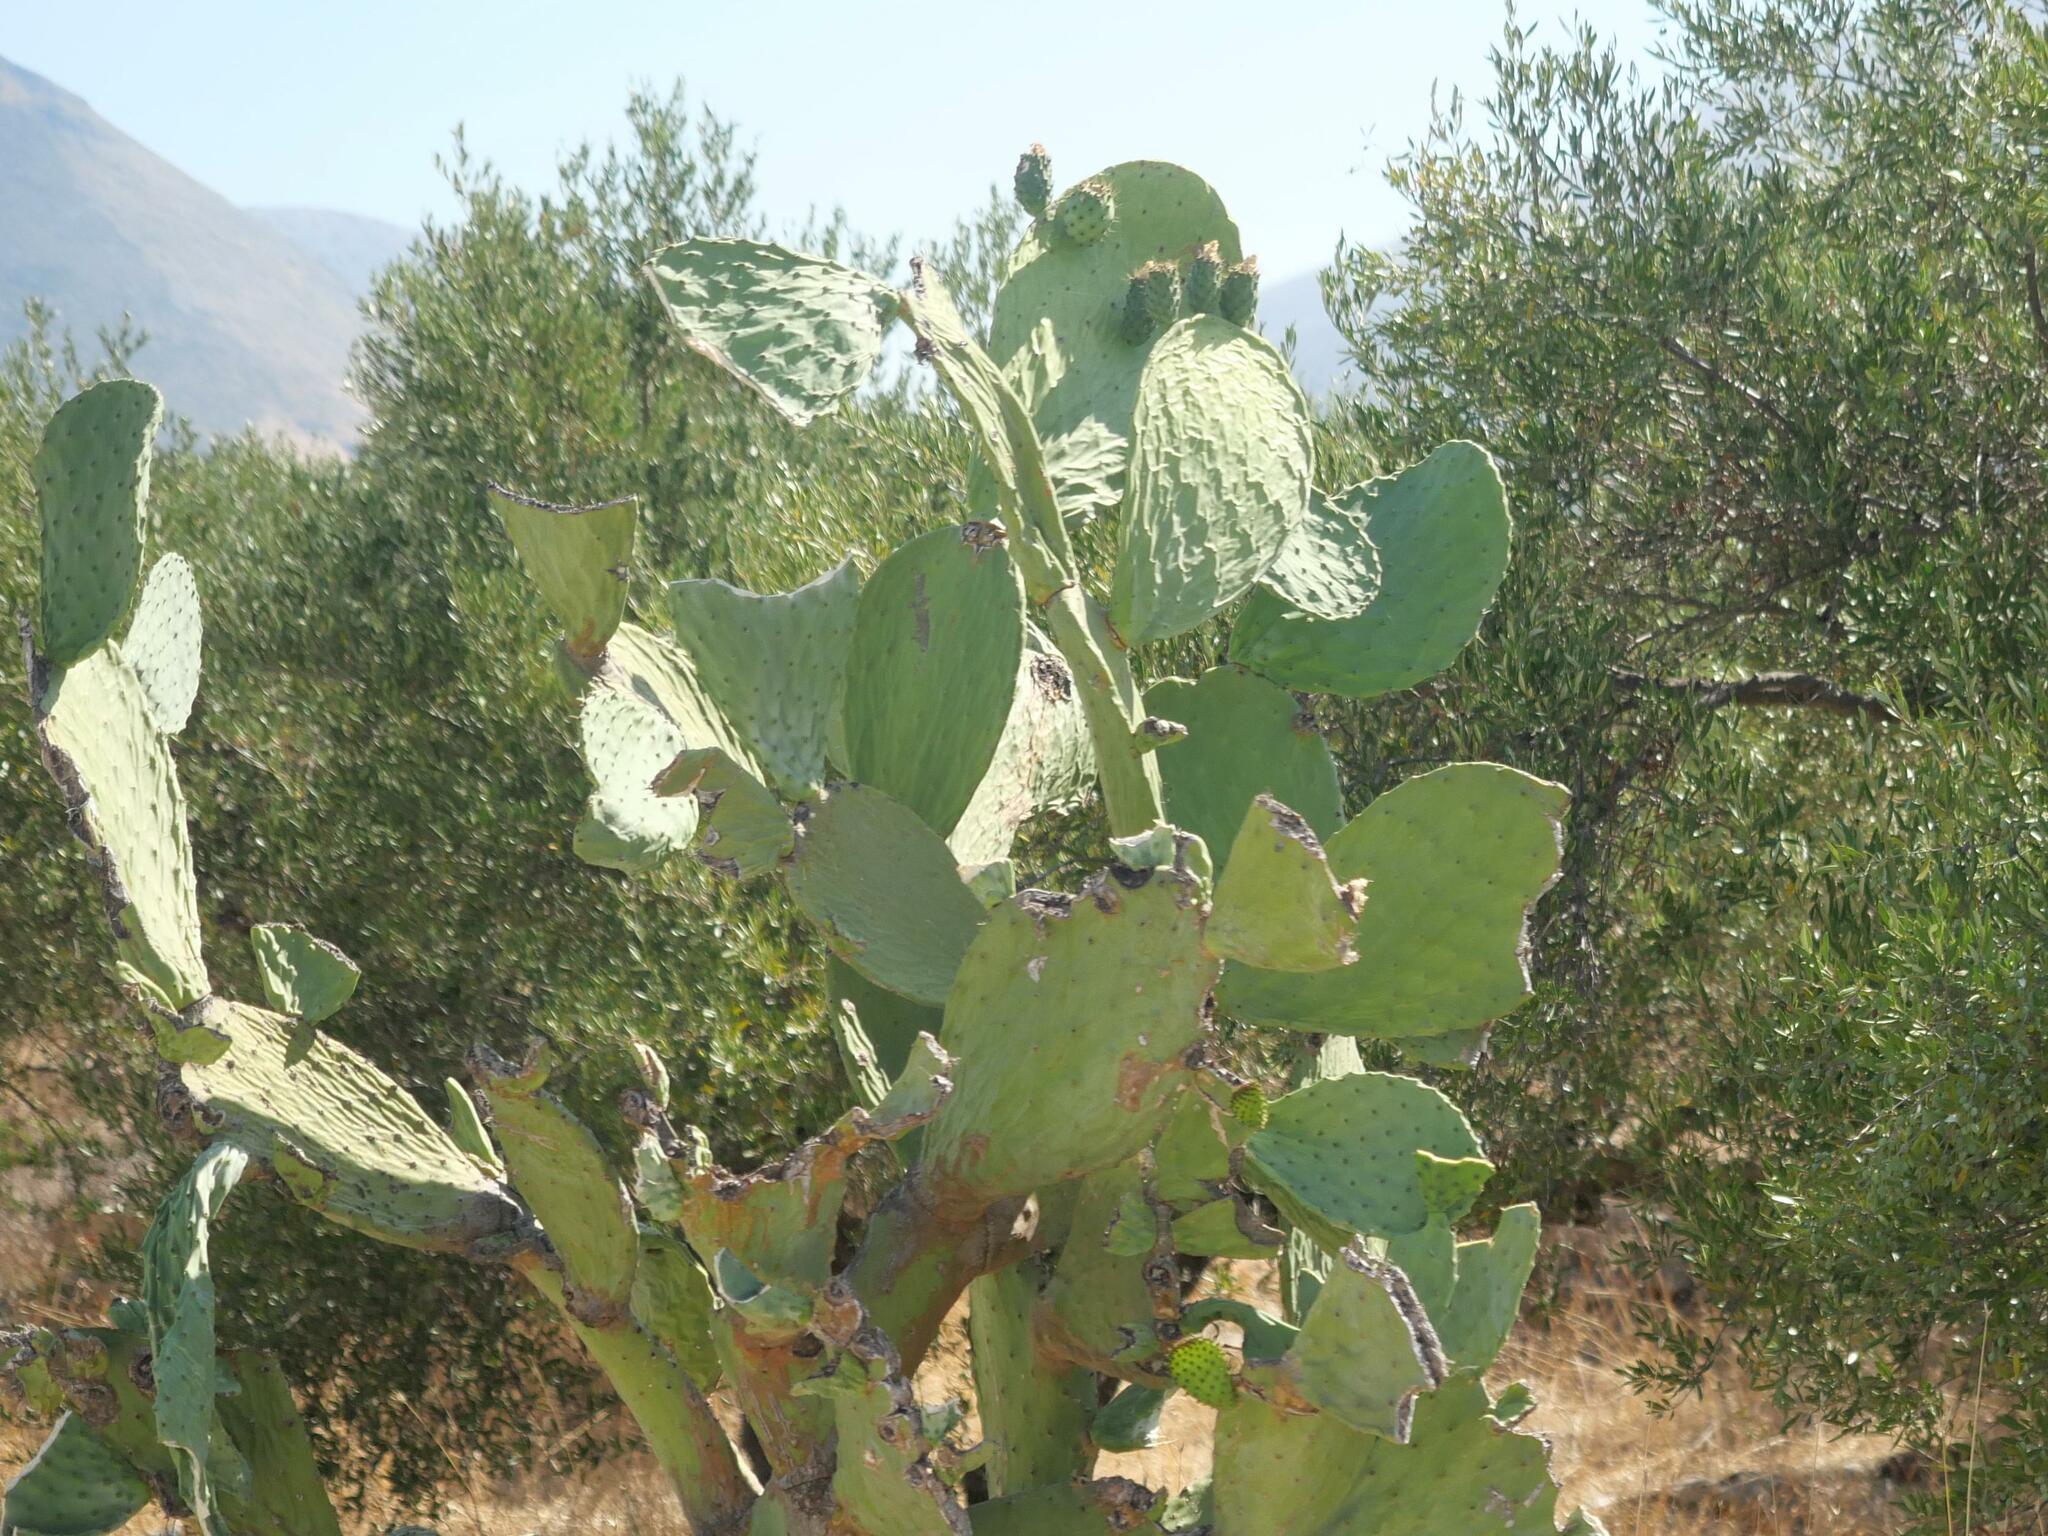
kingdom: Plantae
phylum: Tracheophyta
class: Magnoliopsida
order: Caryophyllales
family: Cactaceae
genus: Opuntia
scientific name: Opuntia ficus-indica
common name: Barbary fig
